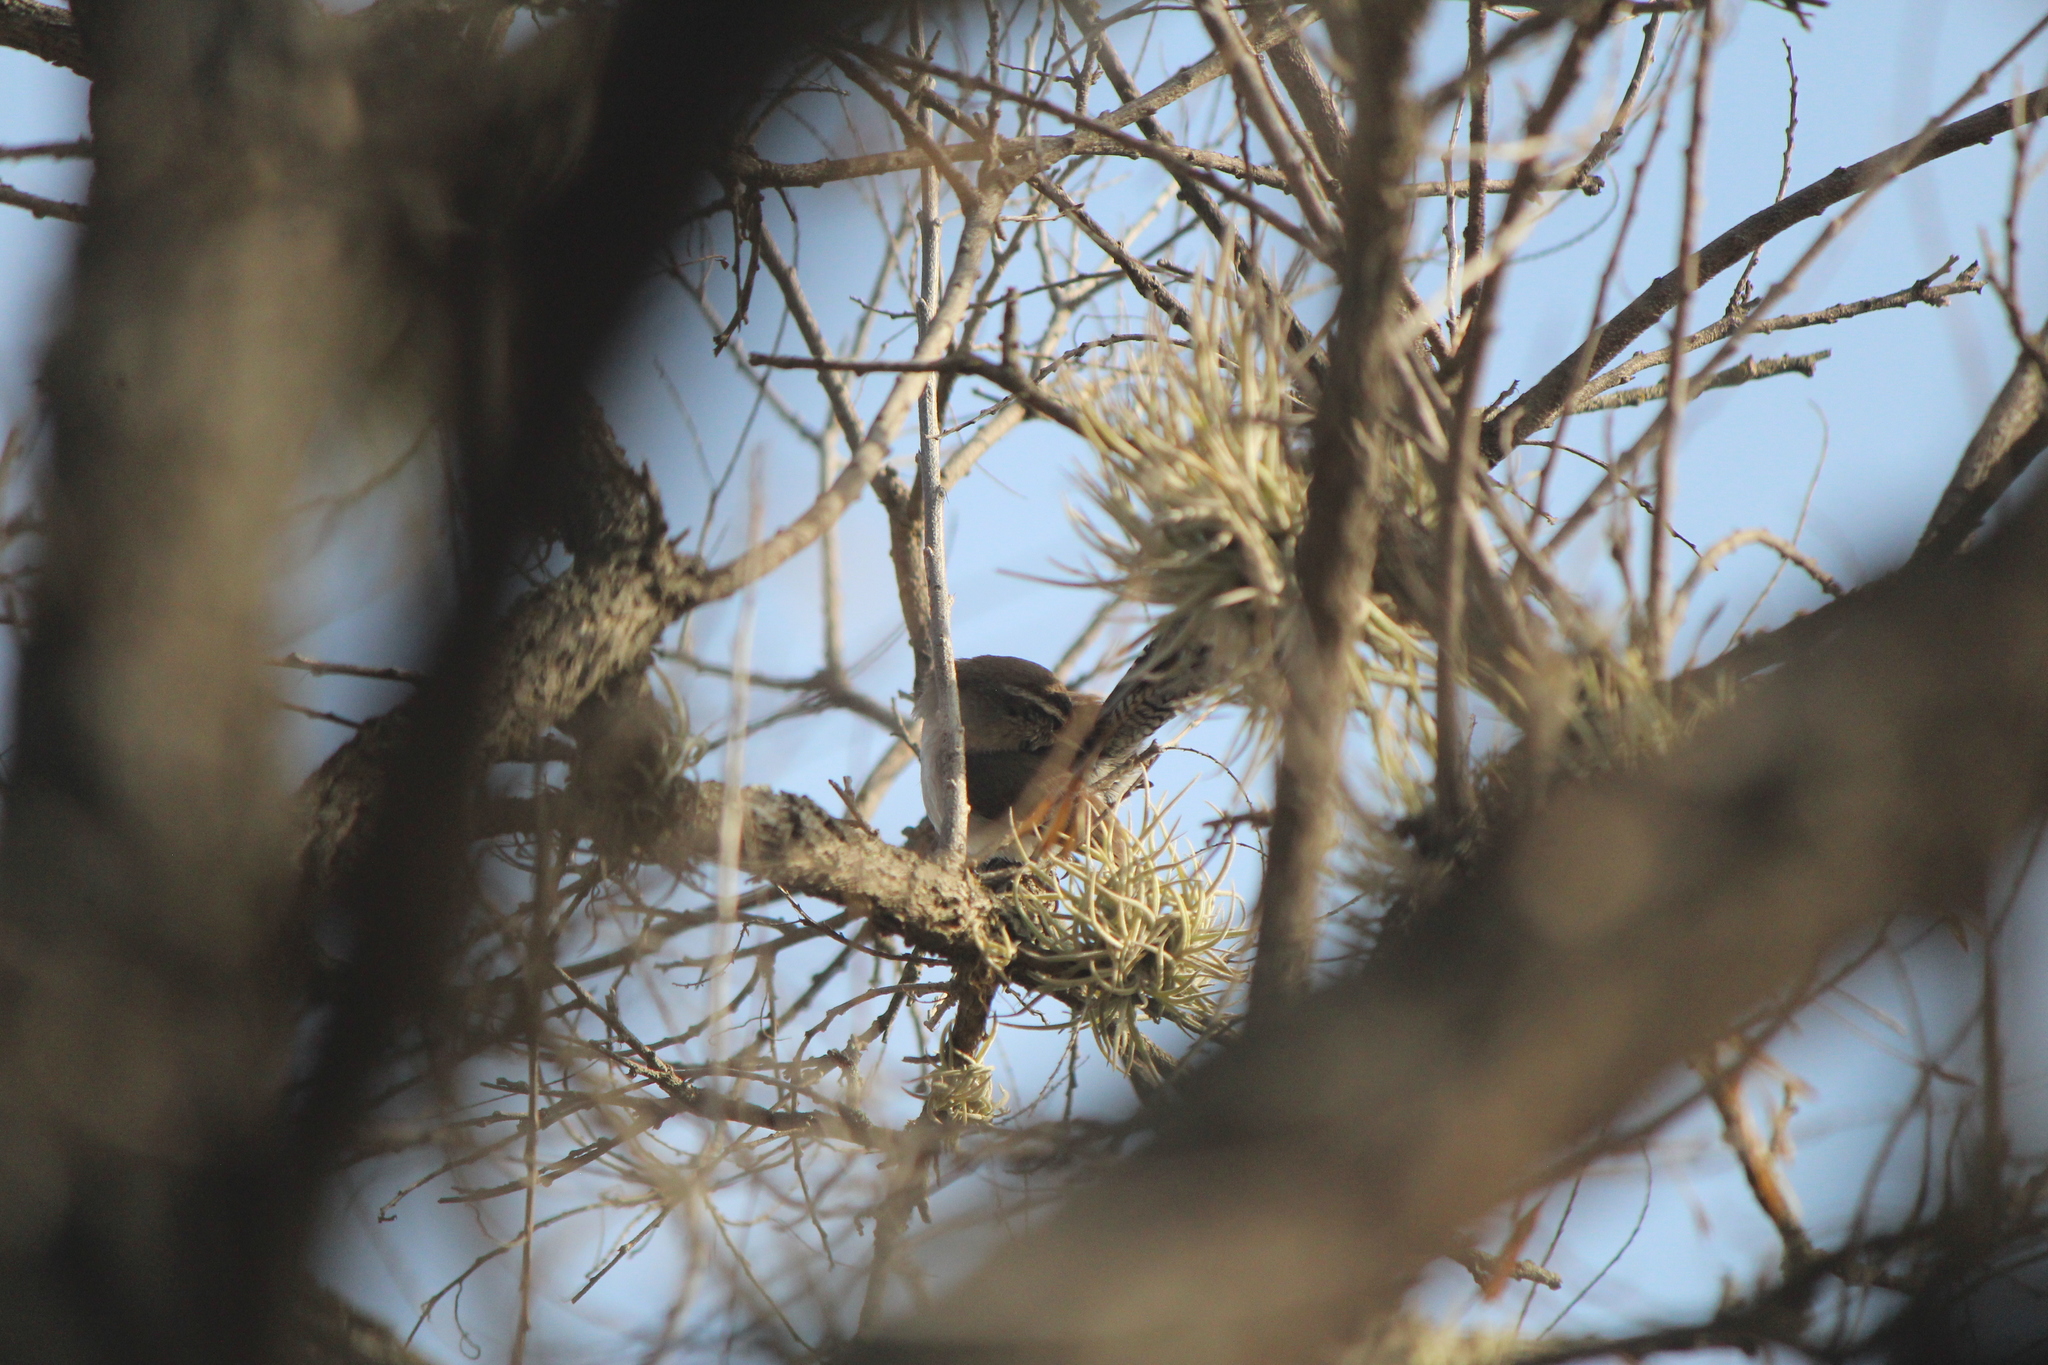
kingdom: Animalia
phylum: Chordata
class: Aves
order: Passeriformes
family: Troglodytidae
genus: Thryomanes
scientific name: Thryomanes bewickii
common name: Bewick's wren
